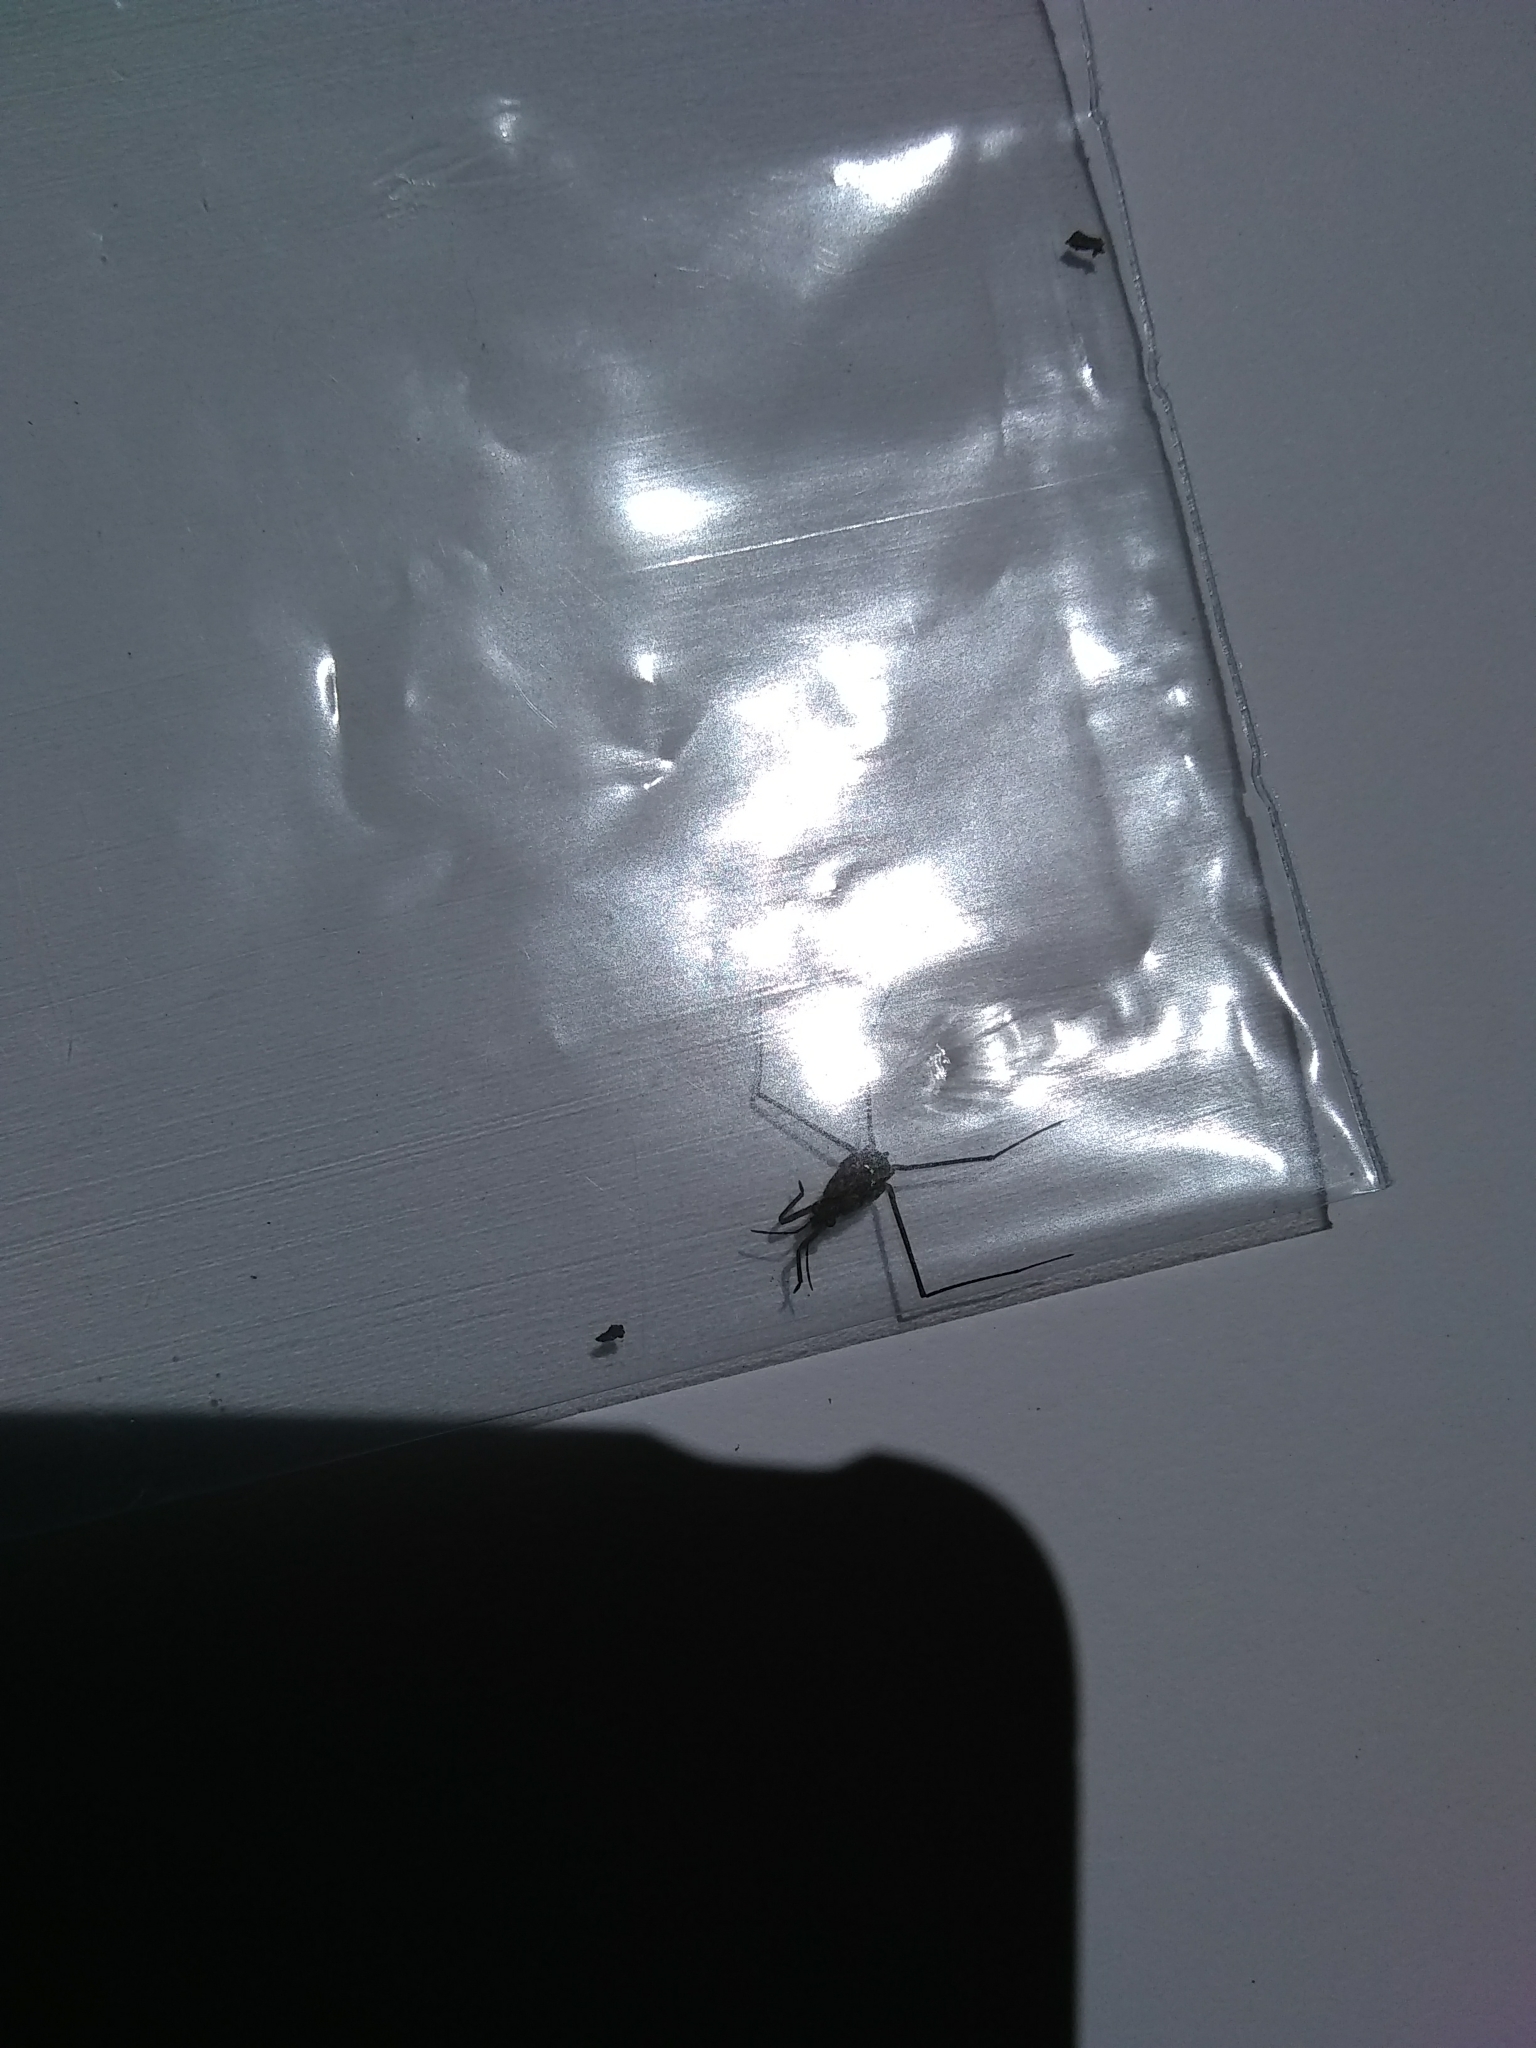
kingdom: Animalia
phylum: Arthropoda
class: Insecta
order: Hemiptera
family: Gerridae
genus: Aquarius
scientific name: Aquarius remigis
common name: Common water strider
